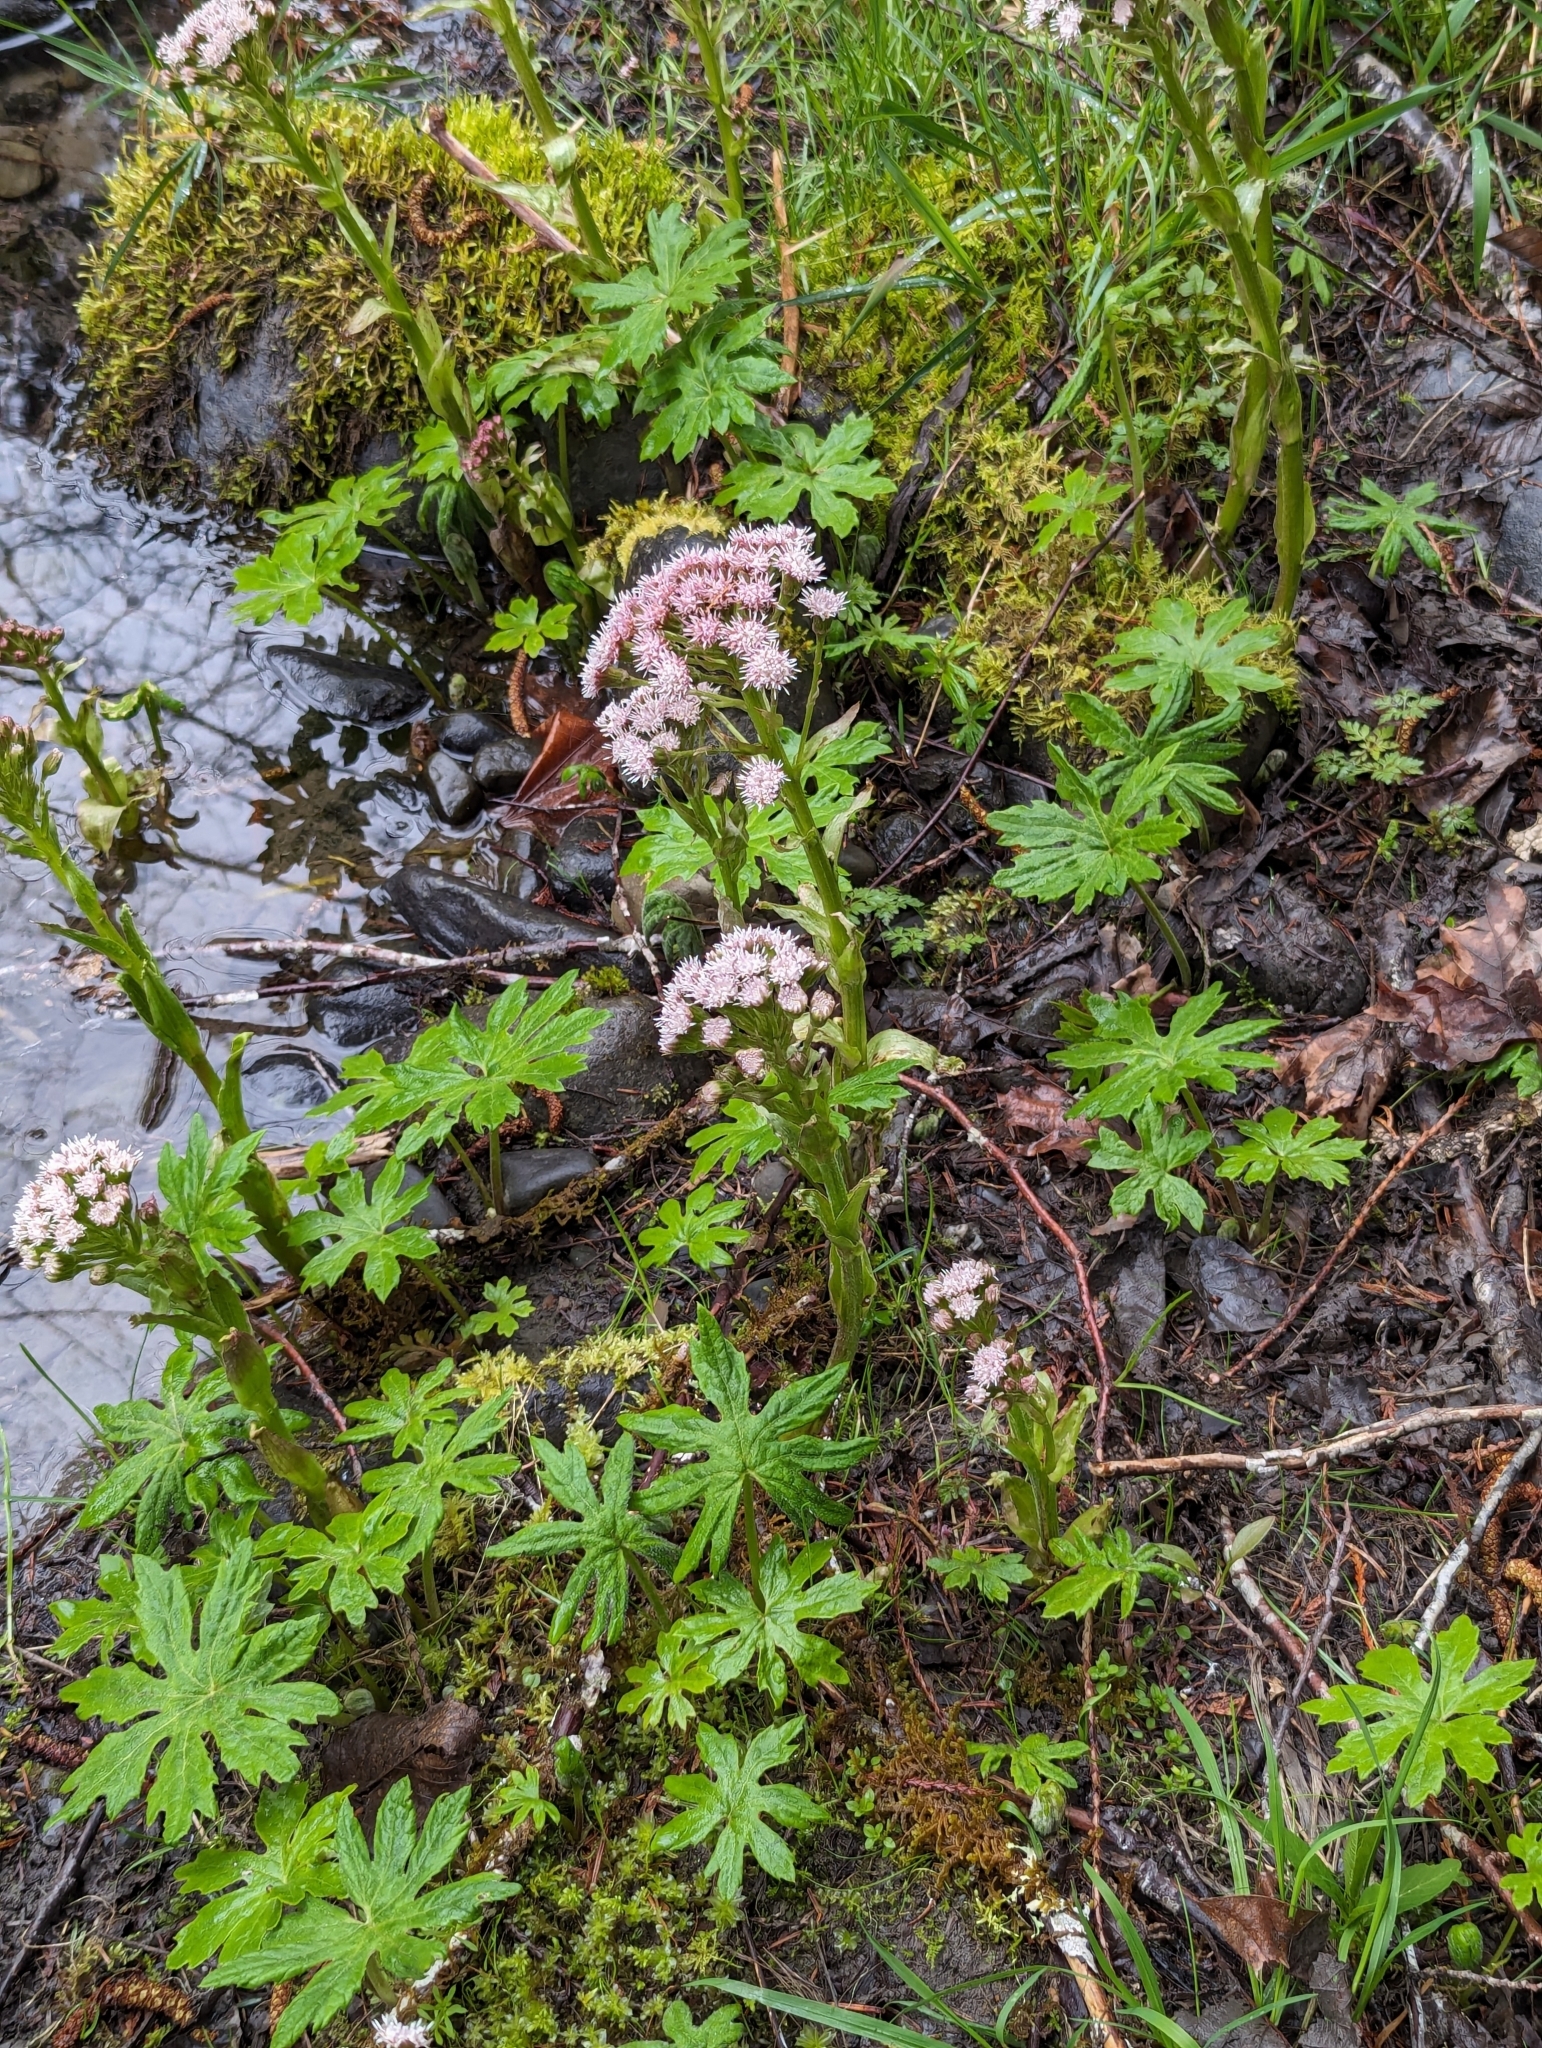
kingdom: Plantae
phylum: Tracheophyta
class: Magnoliopsida
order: Asterales
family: Asteraceae
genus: Petasites
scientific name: Petasites frigidus
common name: Arctic butterbur
